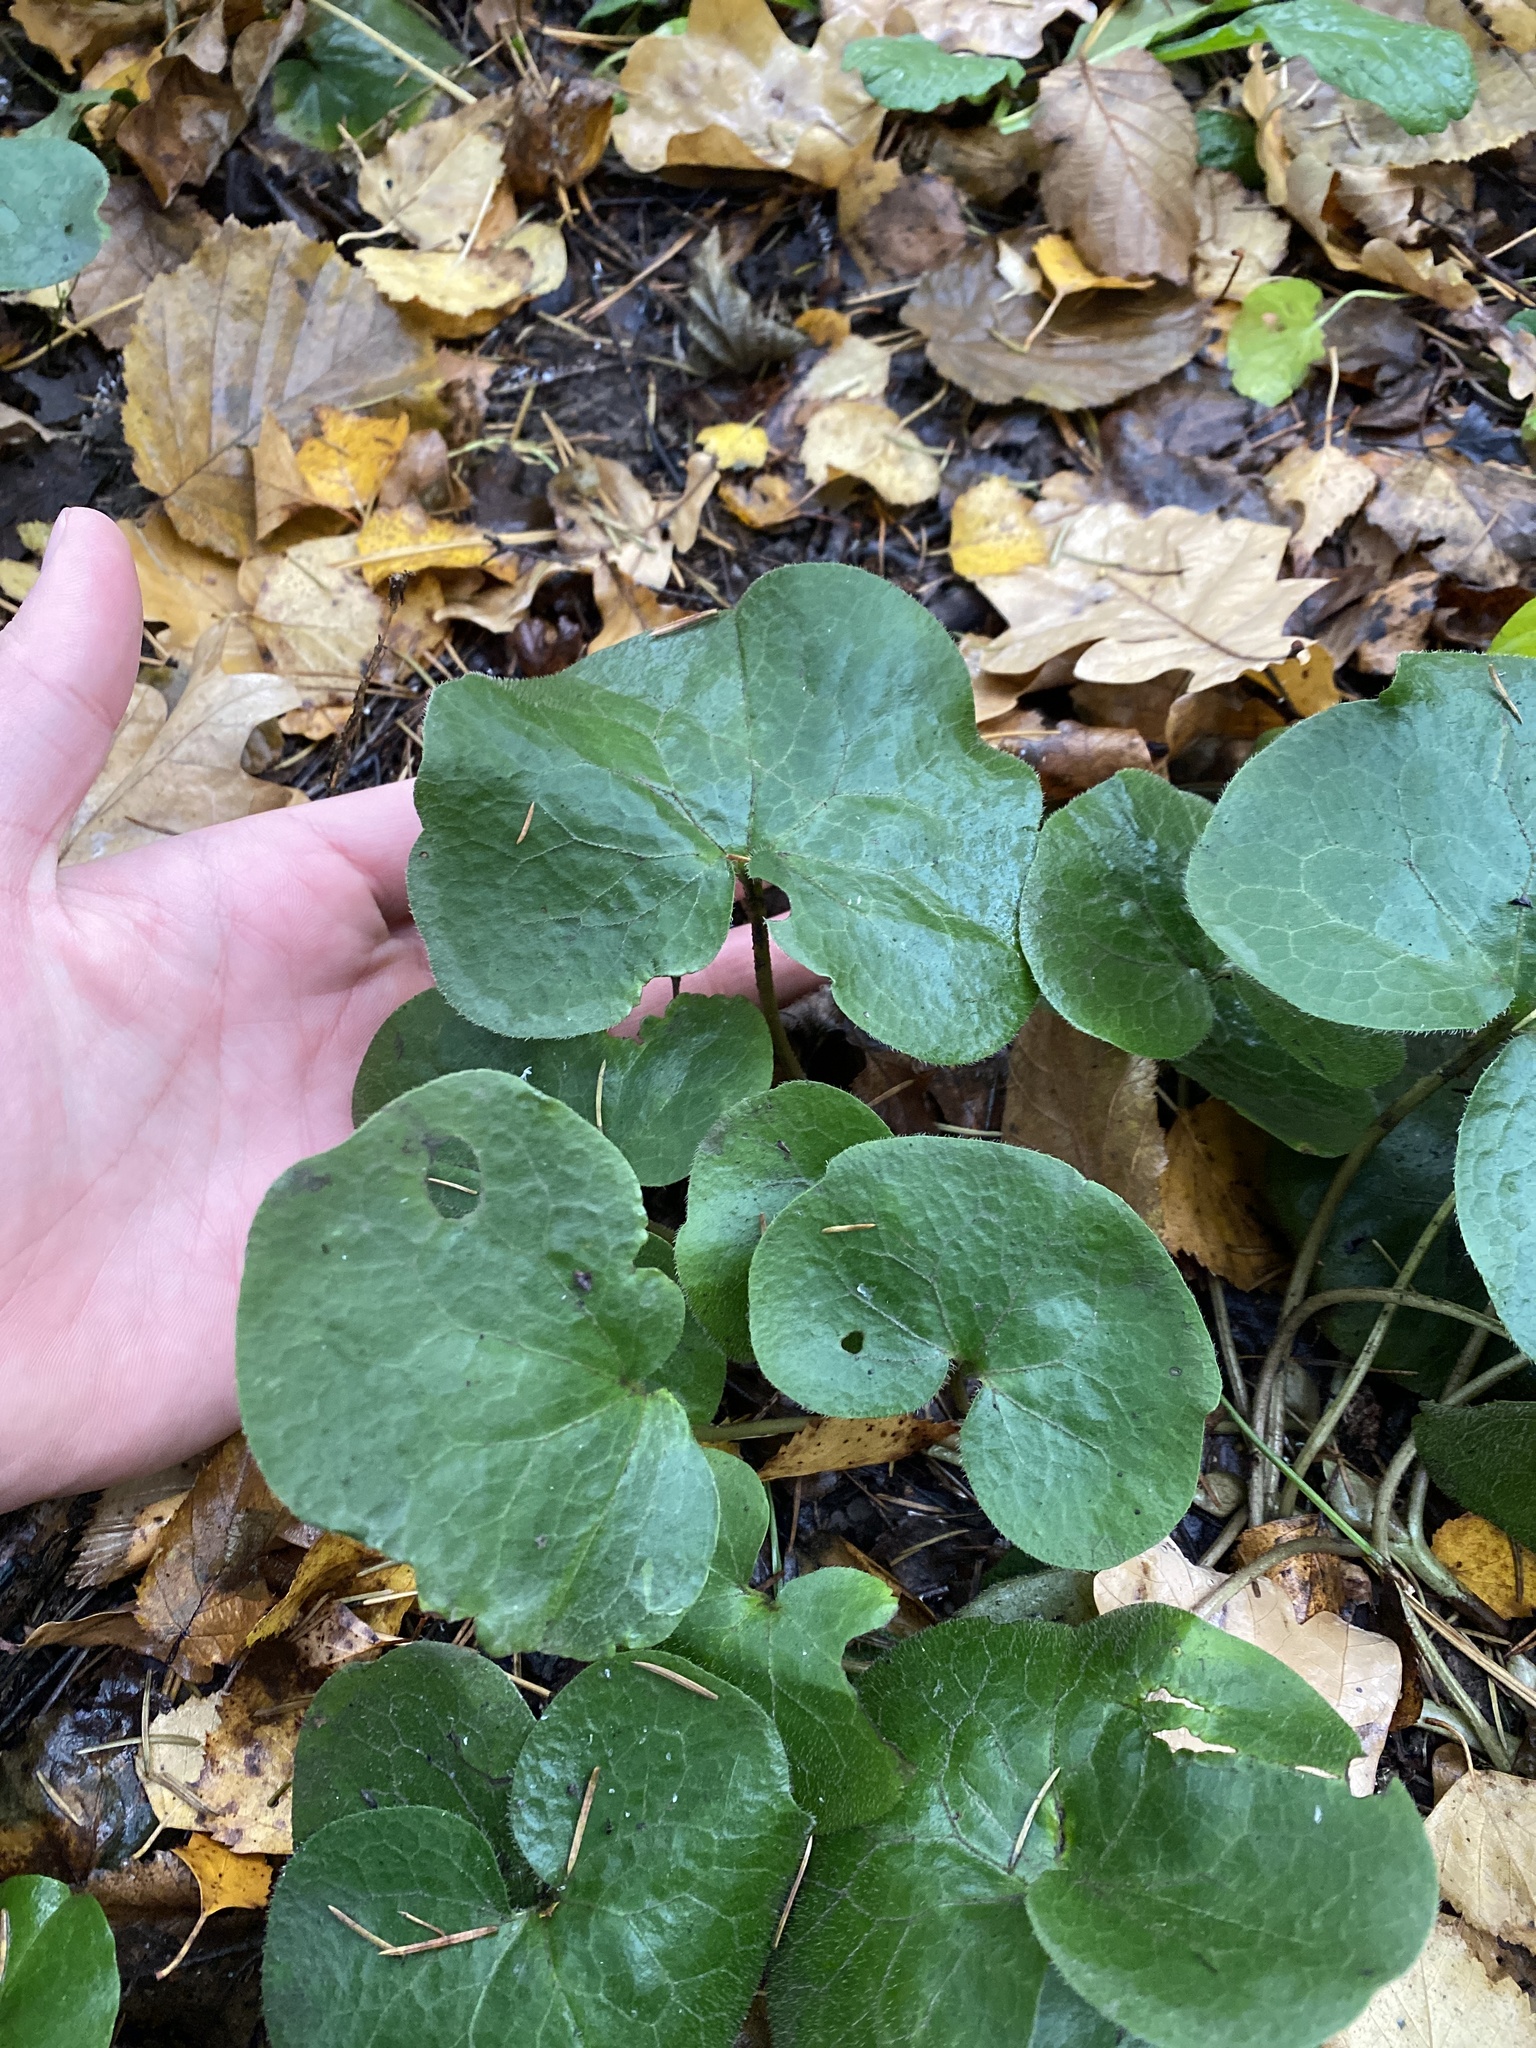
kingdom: Plantae
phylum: Tracheophyta
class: Magnoliopsida
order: Piperales
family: Aristolochiaceae
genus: Asarum
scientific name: Asarum europaeum
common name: Asarabacca
